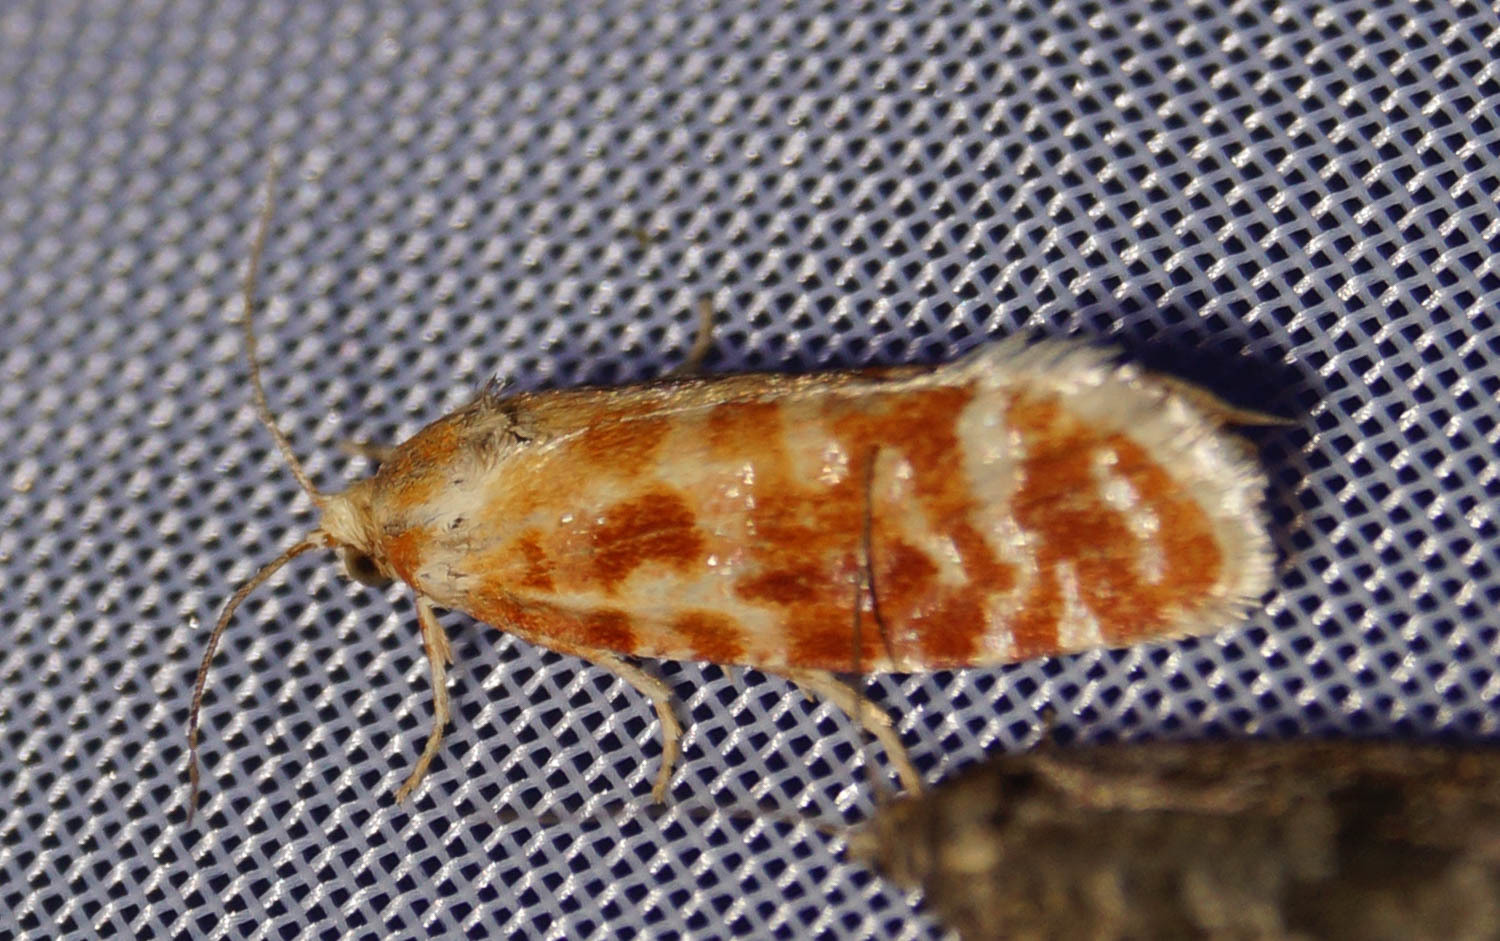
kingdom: Animalia
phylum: Arthropoda
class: Insecta
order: Lepidoptera
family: Tortricidae
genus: Rhyacionia
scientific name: Rhyacionia pinicolana
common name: Orange-spotted shoot
